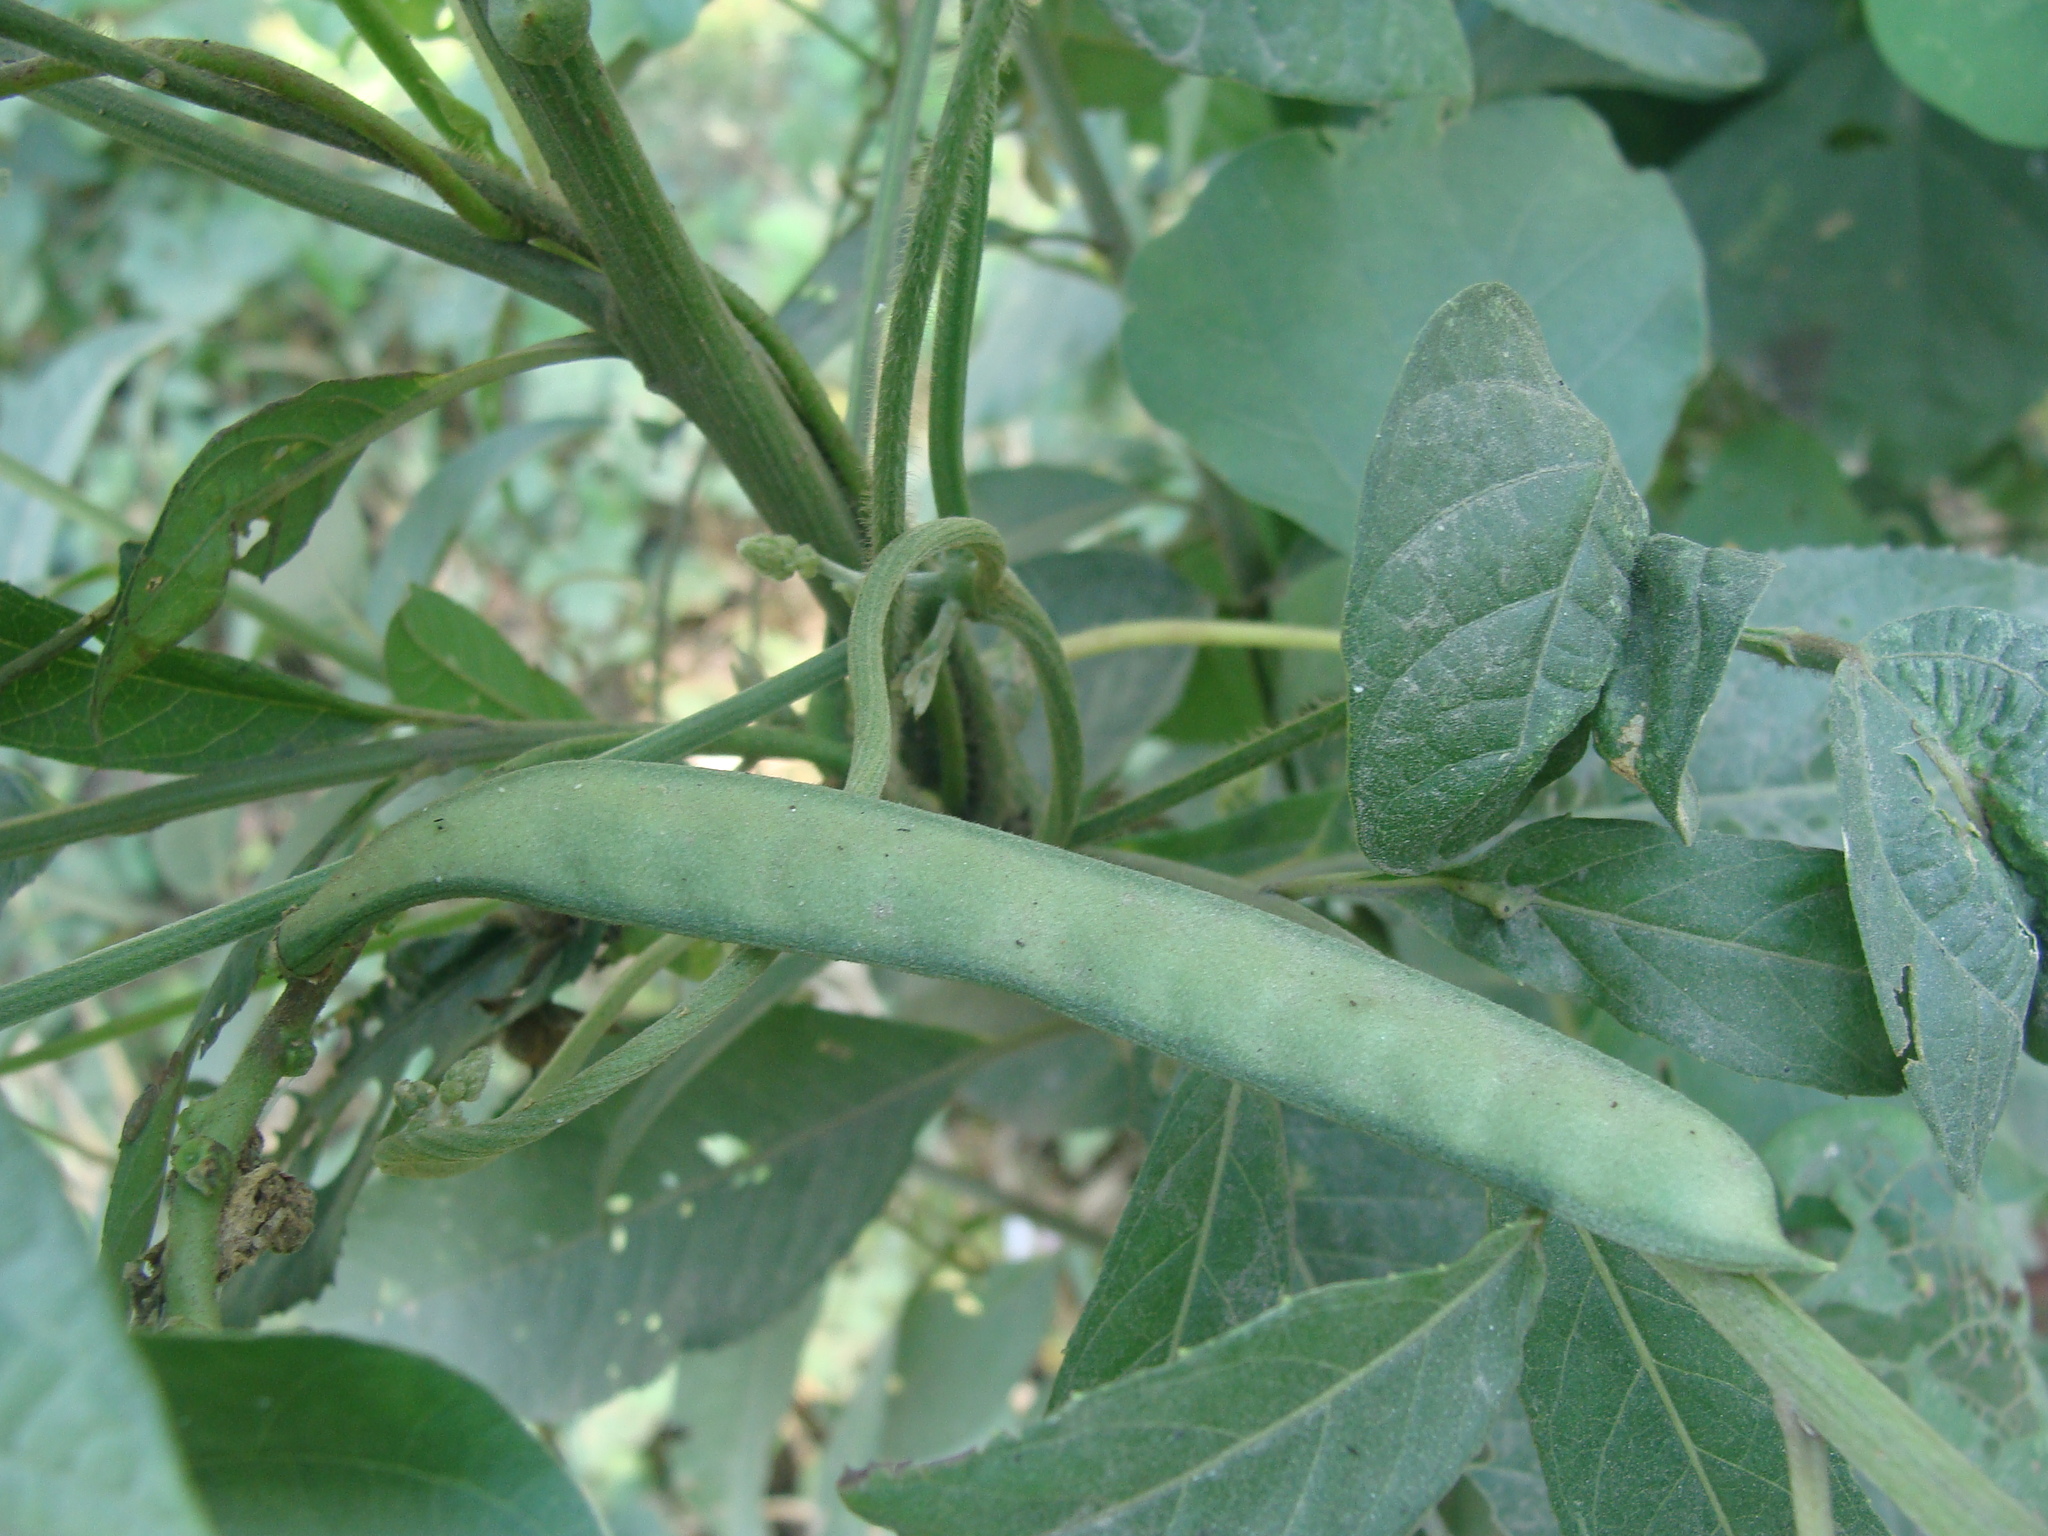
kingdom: Plantae
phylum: Tracheophyta
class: Magnoliopsida
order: Fabales
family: Fabaceae
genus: Leptospron
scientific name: Leptospron adenanthum
